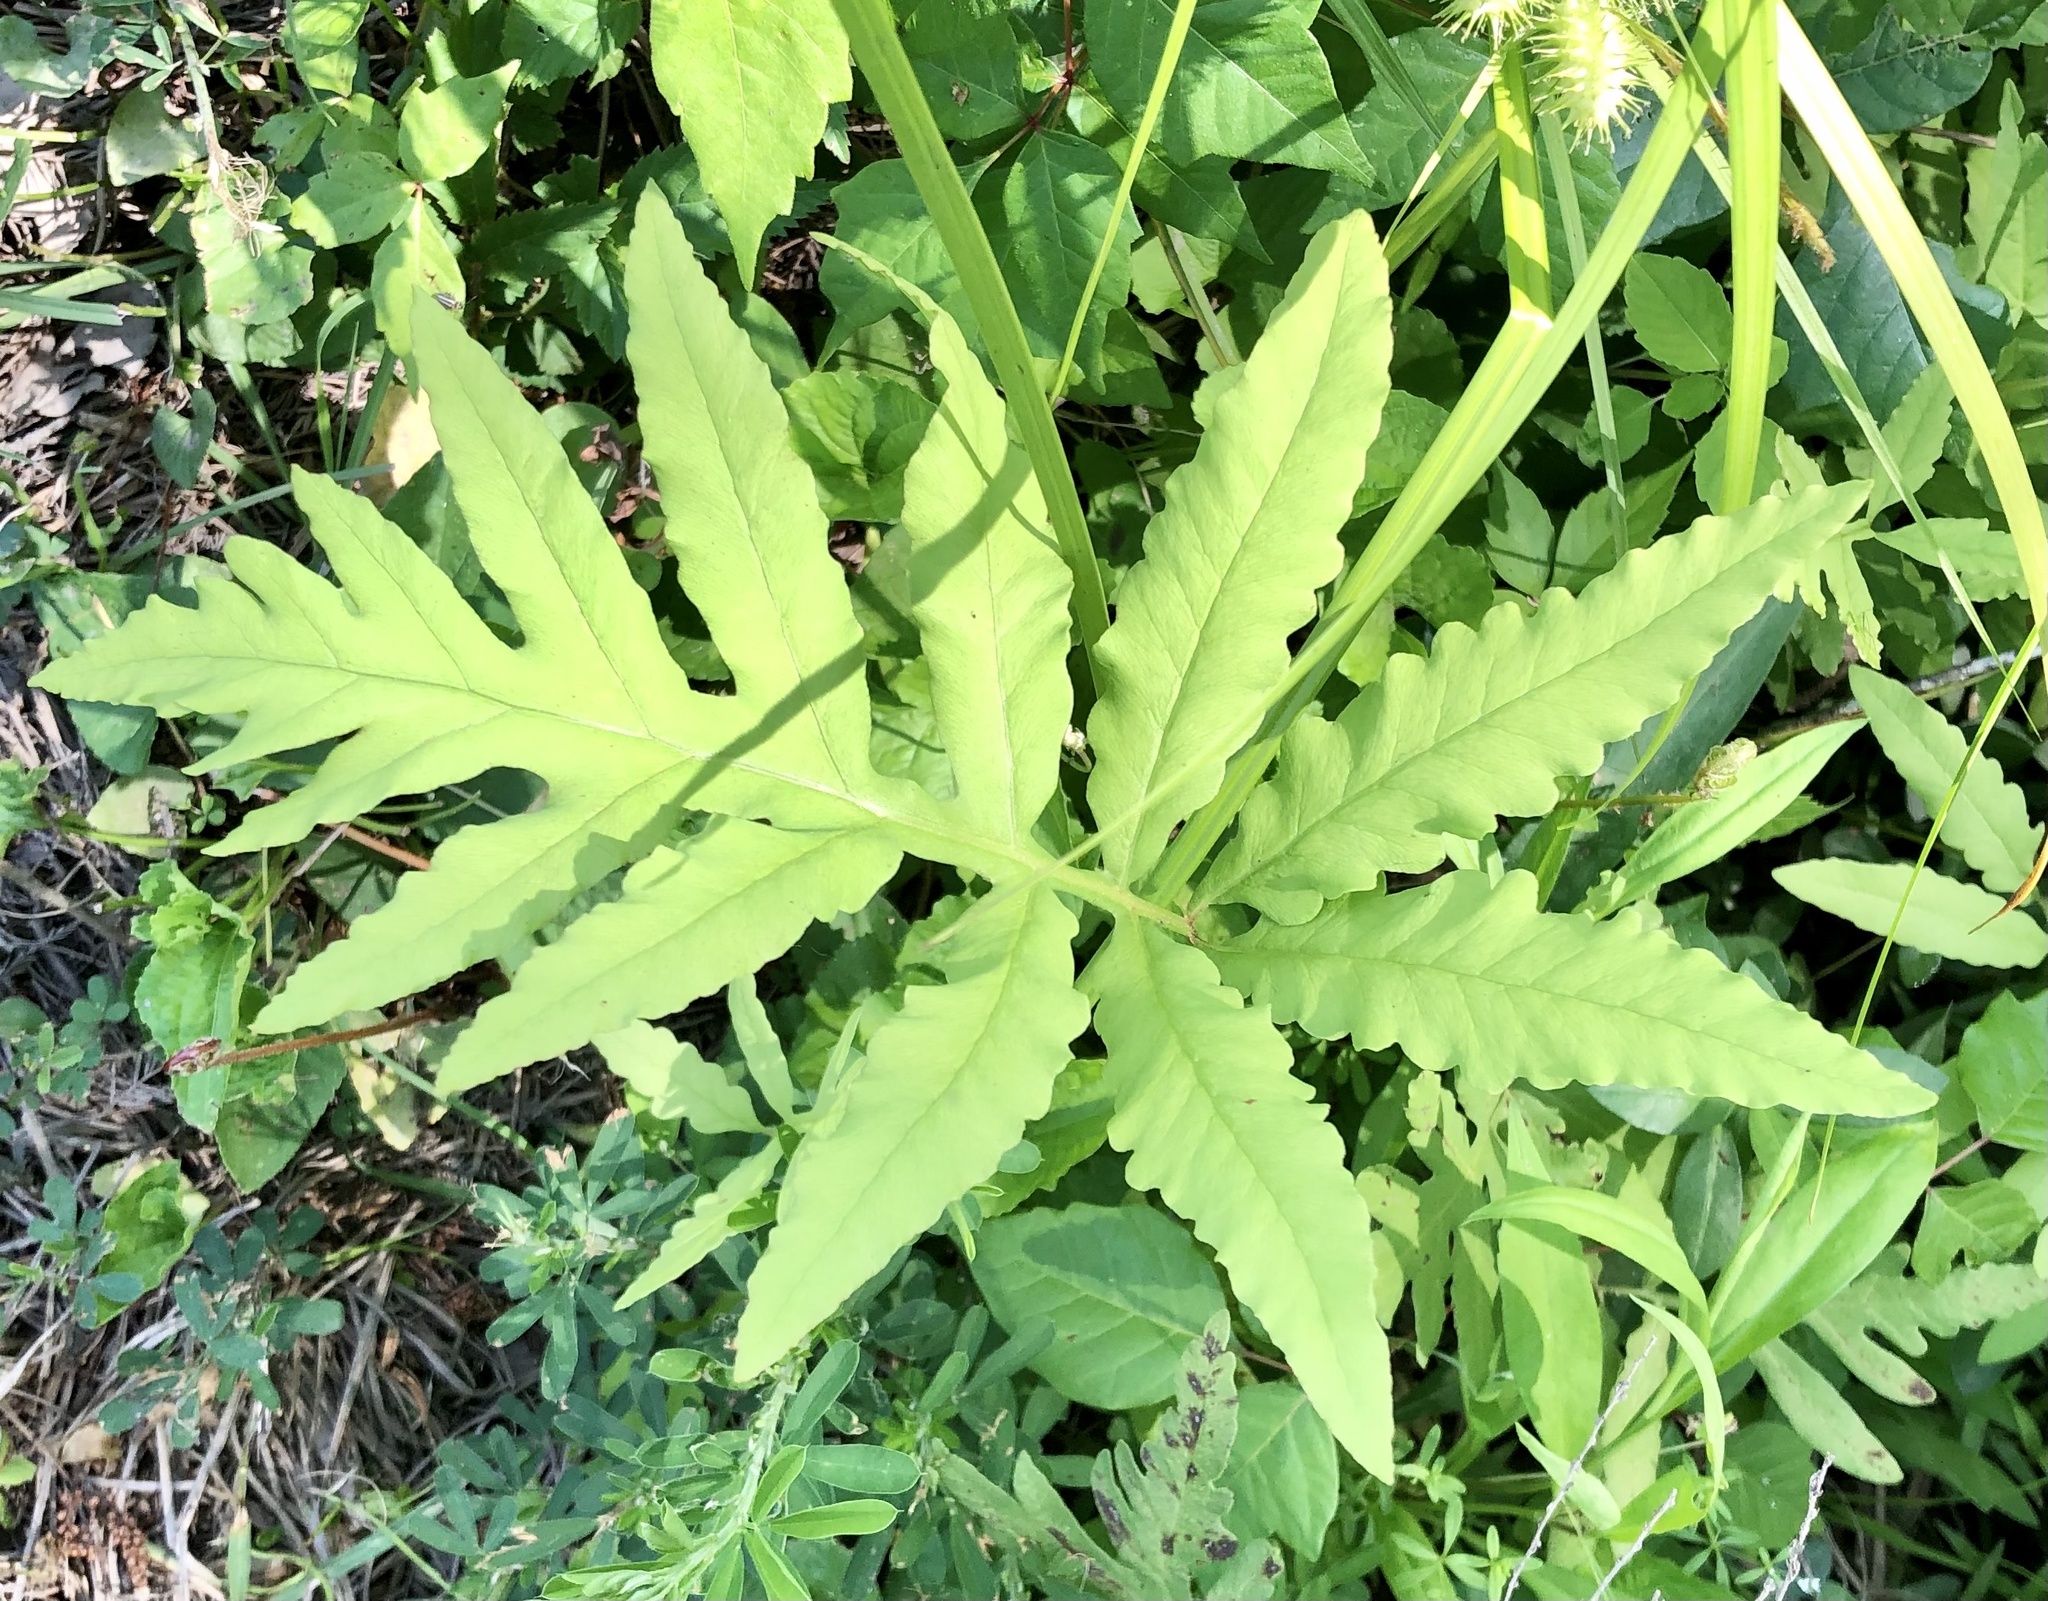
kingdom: Plantae
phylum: Tracheophyta
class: Polypodiopsida
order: Polypodiales
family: Onocleaceae
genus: Onoclea
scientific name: Onoclea sensibilis
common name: Sensitive fern
